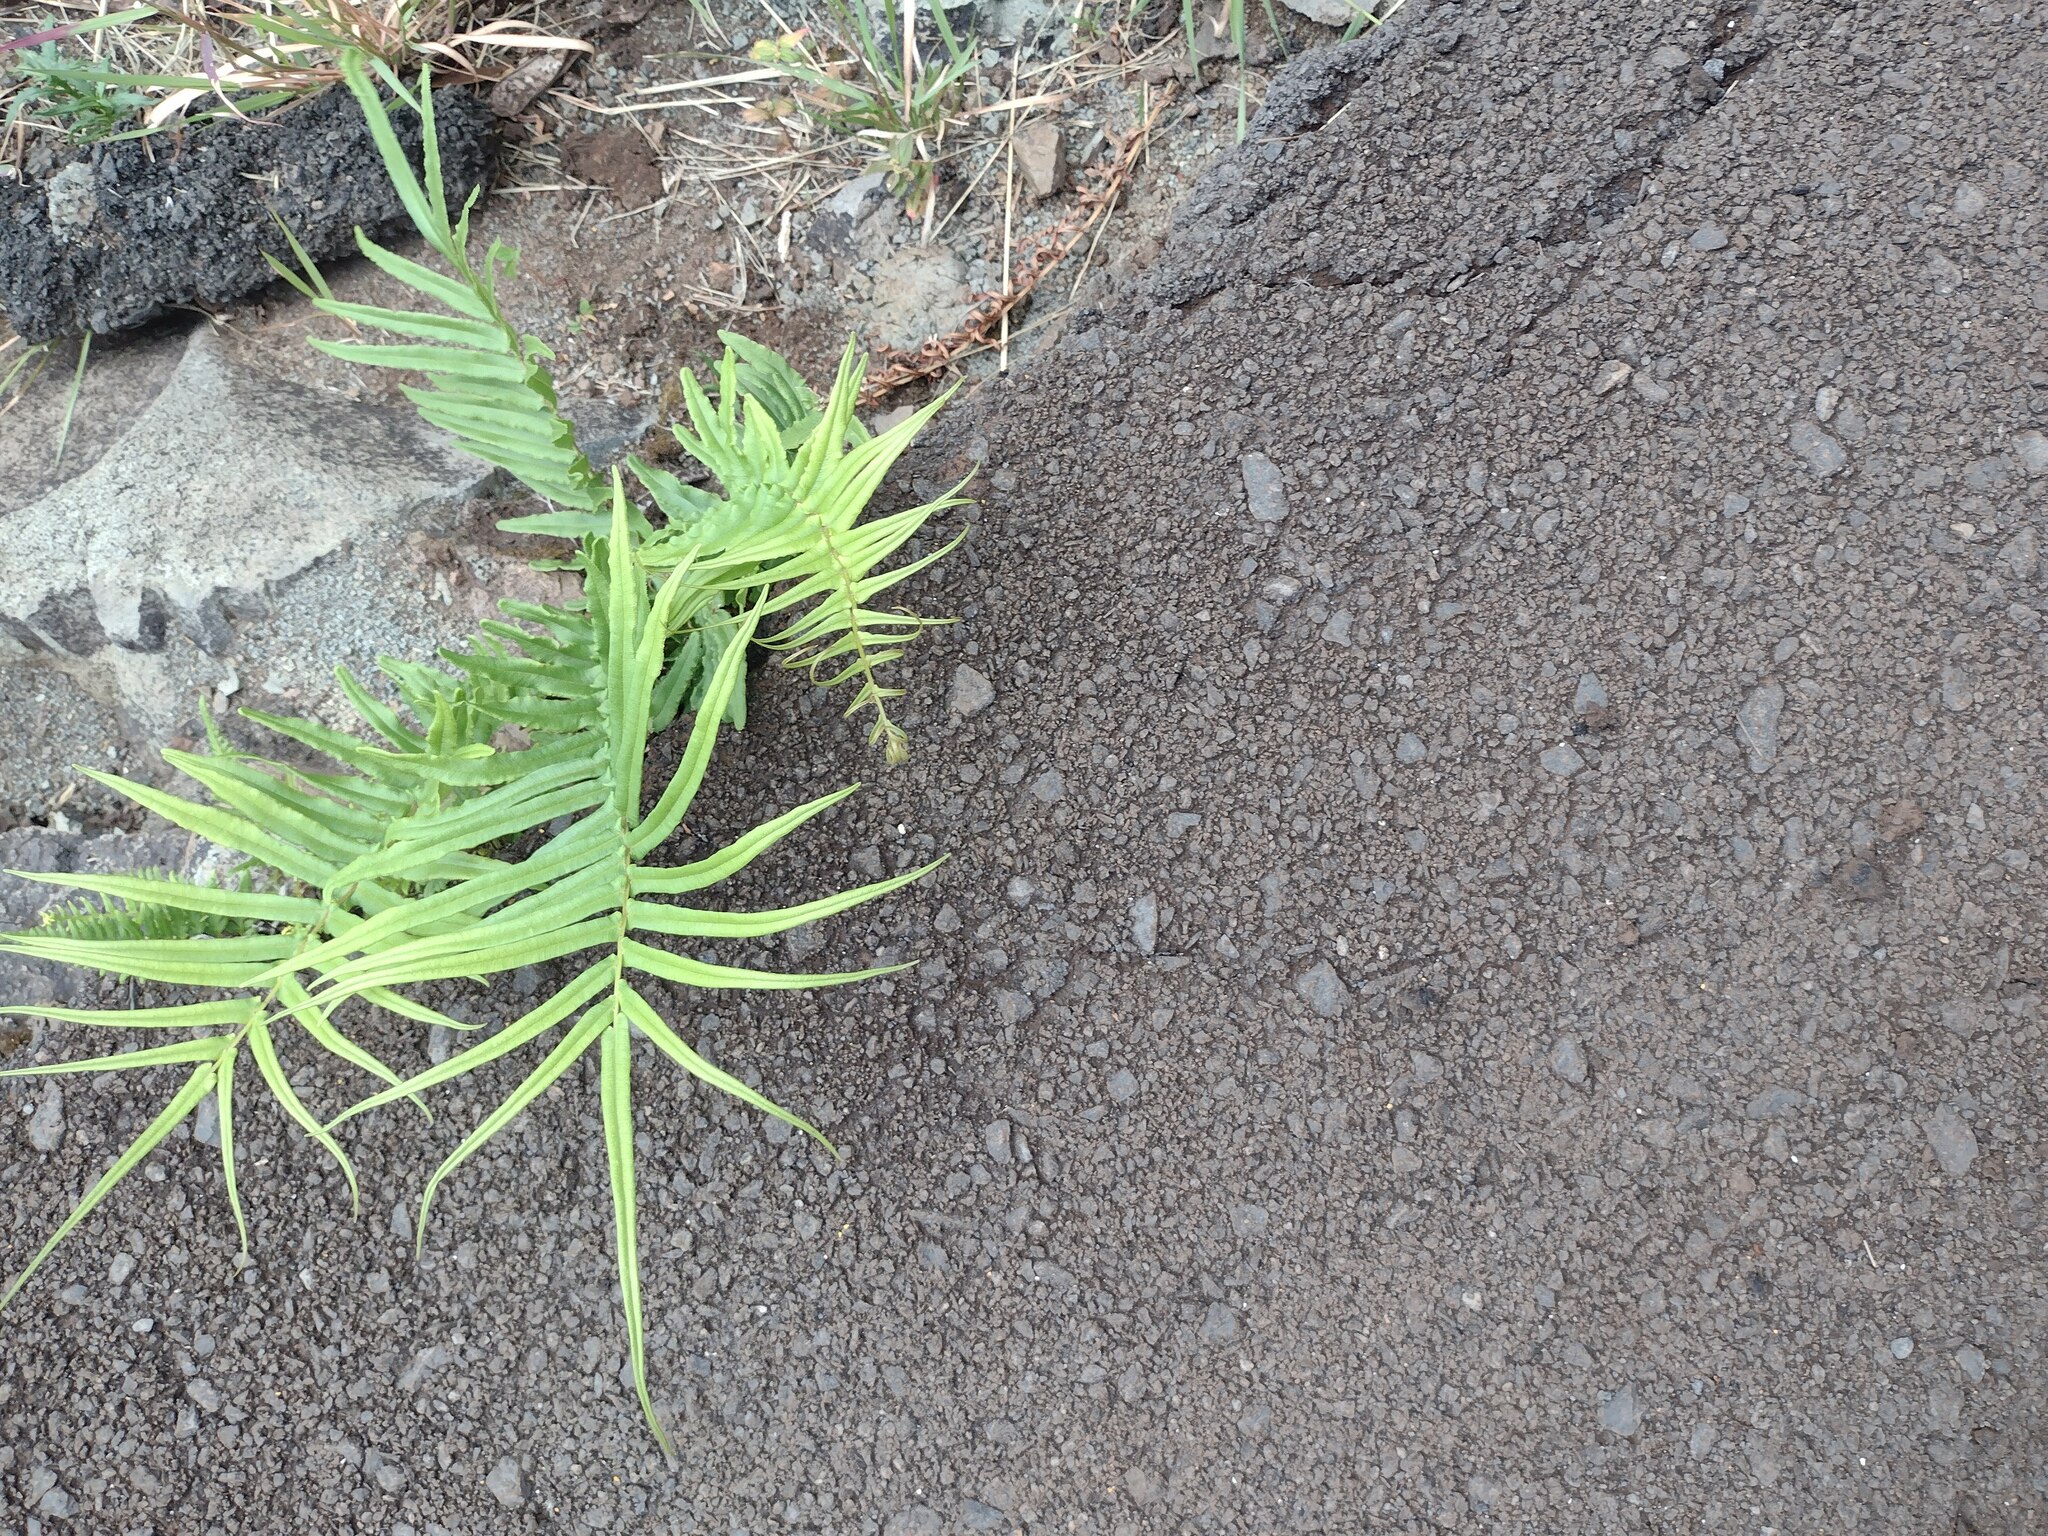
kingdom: Plantae
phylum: Tracheophyta
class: Polypodiopsida
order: Polypodiales
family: Pteridaceae
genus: Pteris
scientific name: Pteris vittata
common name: Ladder brake
